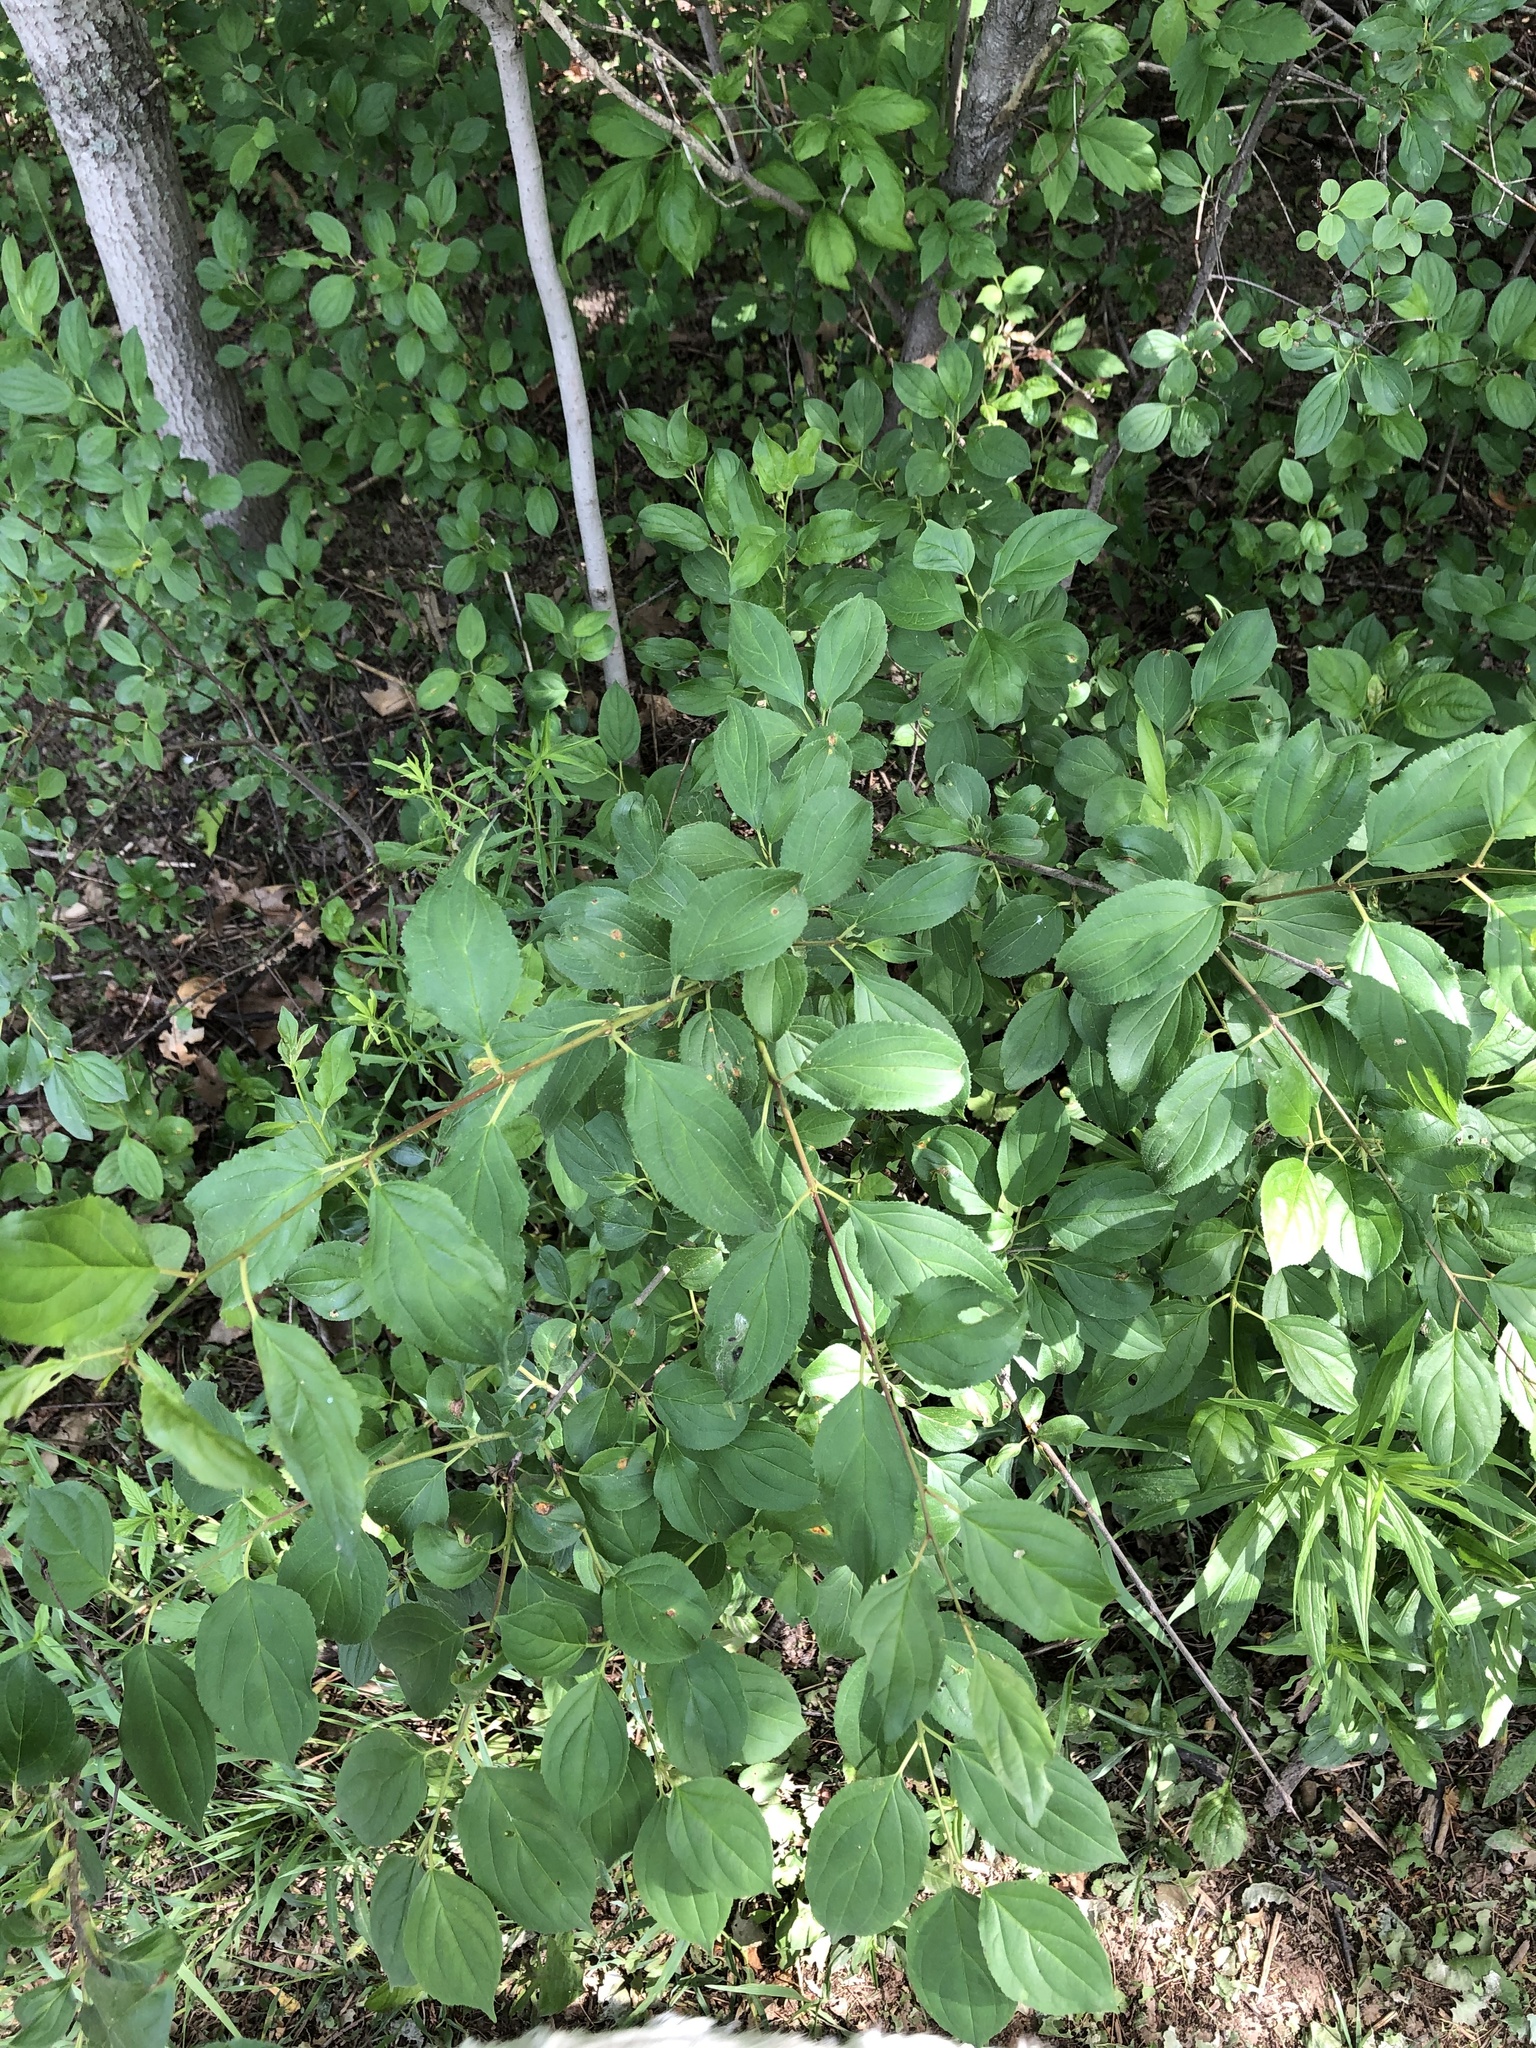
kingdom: Plantae
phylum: Tracheophyta
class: Magnoliopsida
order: Rosales
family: Rhamnaceae
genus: Rhamnus
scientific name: Rhamnus cathartica
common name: Common buckthorn
